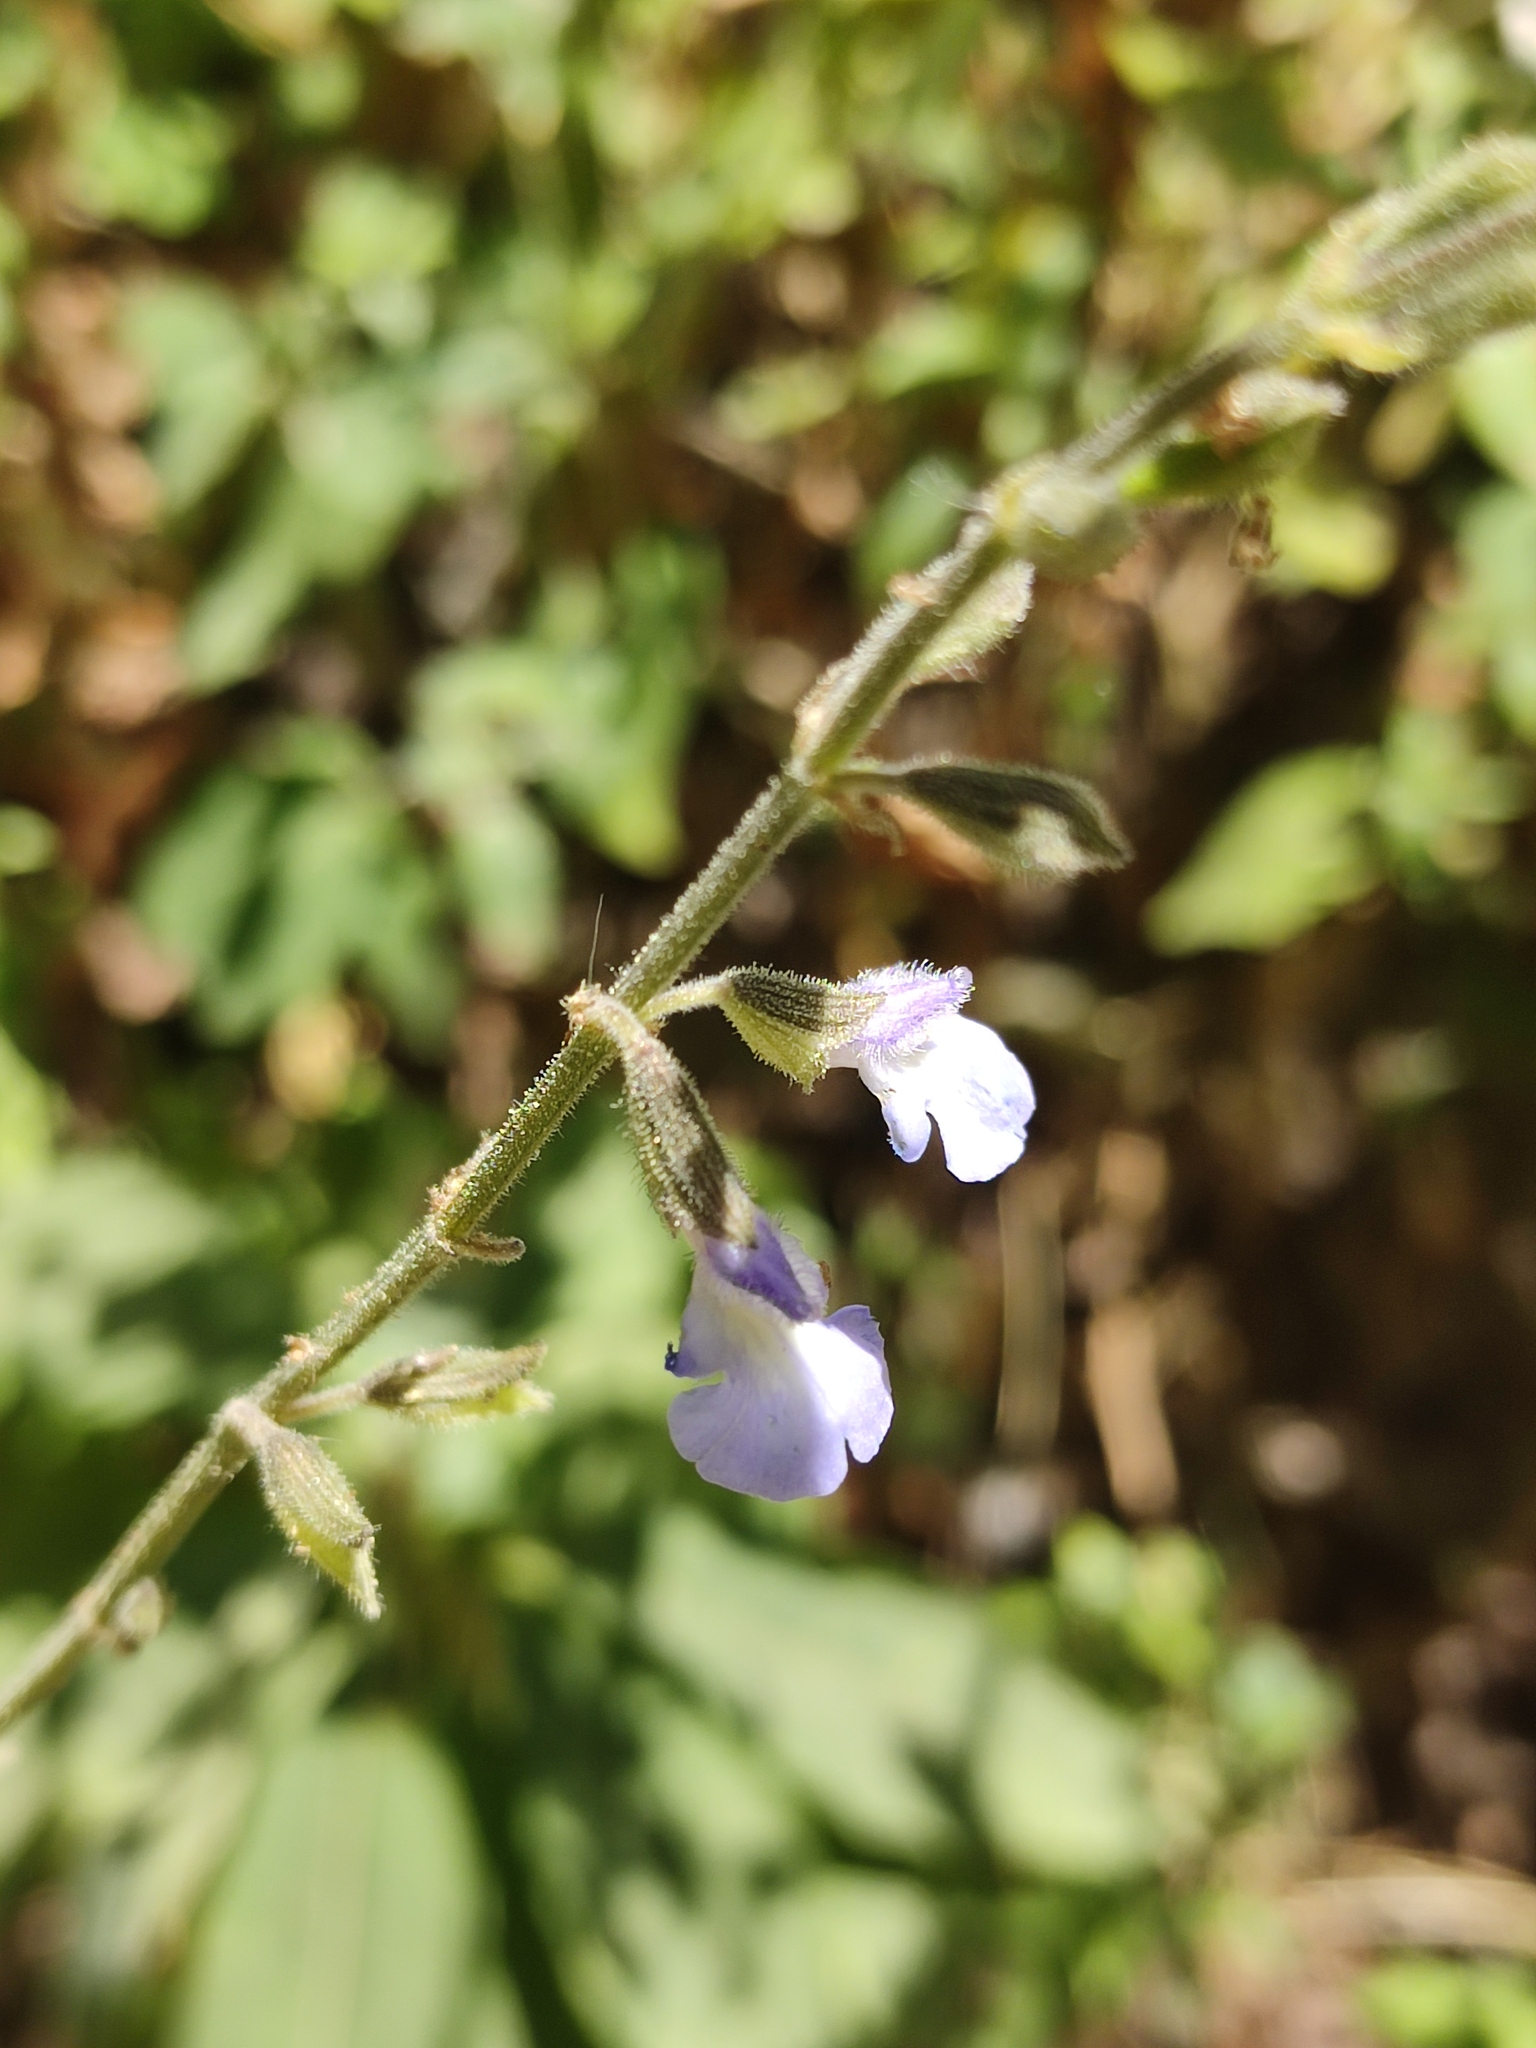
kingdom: Plantae
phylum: Tracheophyta
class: Magnoliopsida
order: Lamiales
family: Lamiaceae
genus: Salvia
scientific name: Salvia ramamoorthyana
